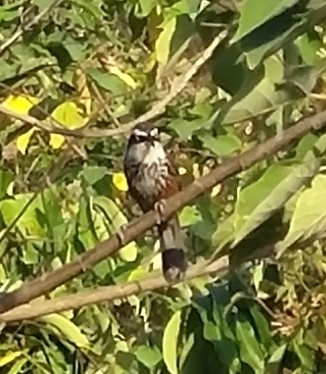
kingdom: Animalia
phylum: Chordata
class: Aves
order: Passeriformes
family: Timaliidae
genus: Pomatorhinus
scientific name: Pomatorhinus musicus
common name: Taiwan scimitar-babbler
